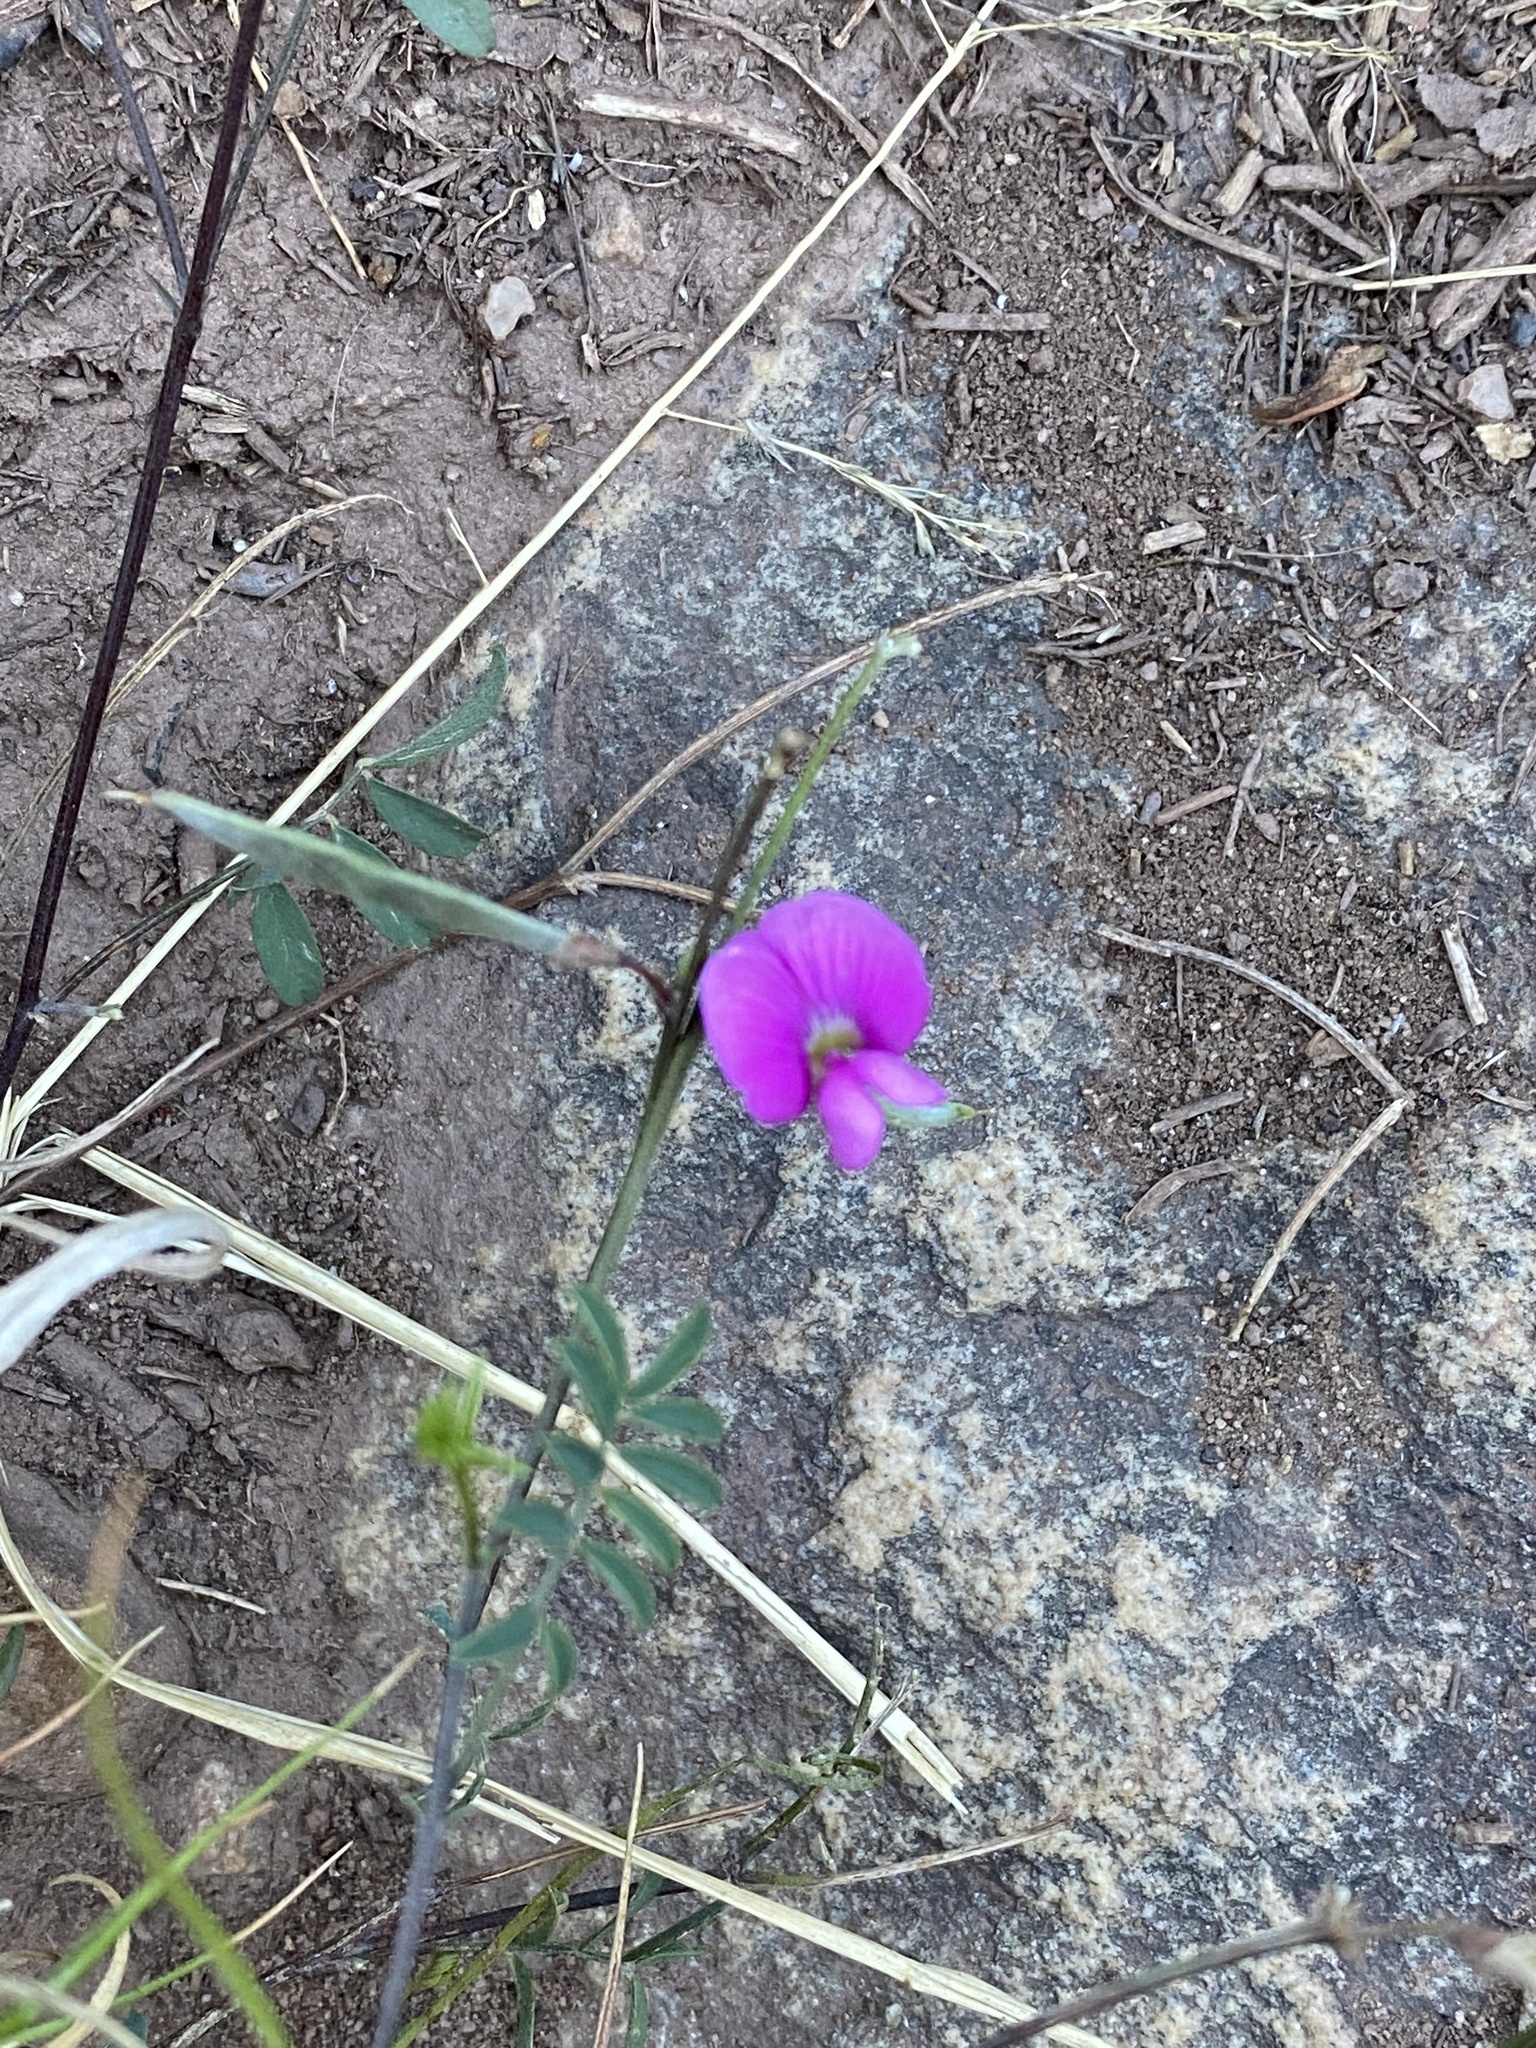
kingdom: Plantae
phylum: Tracheophyta
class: Magnoliopsida
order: Fabales
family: Fabaceae
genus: Tephrosia
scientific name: Tephrosia capensis
